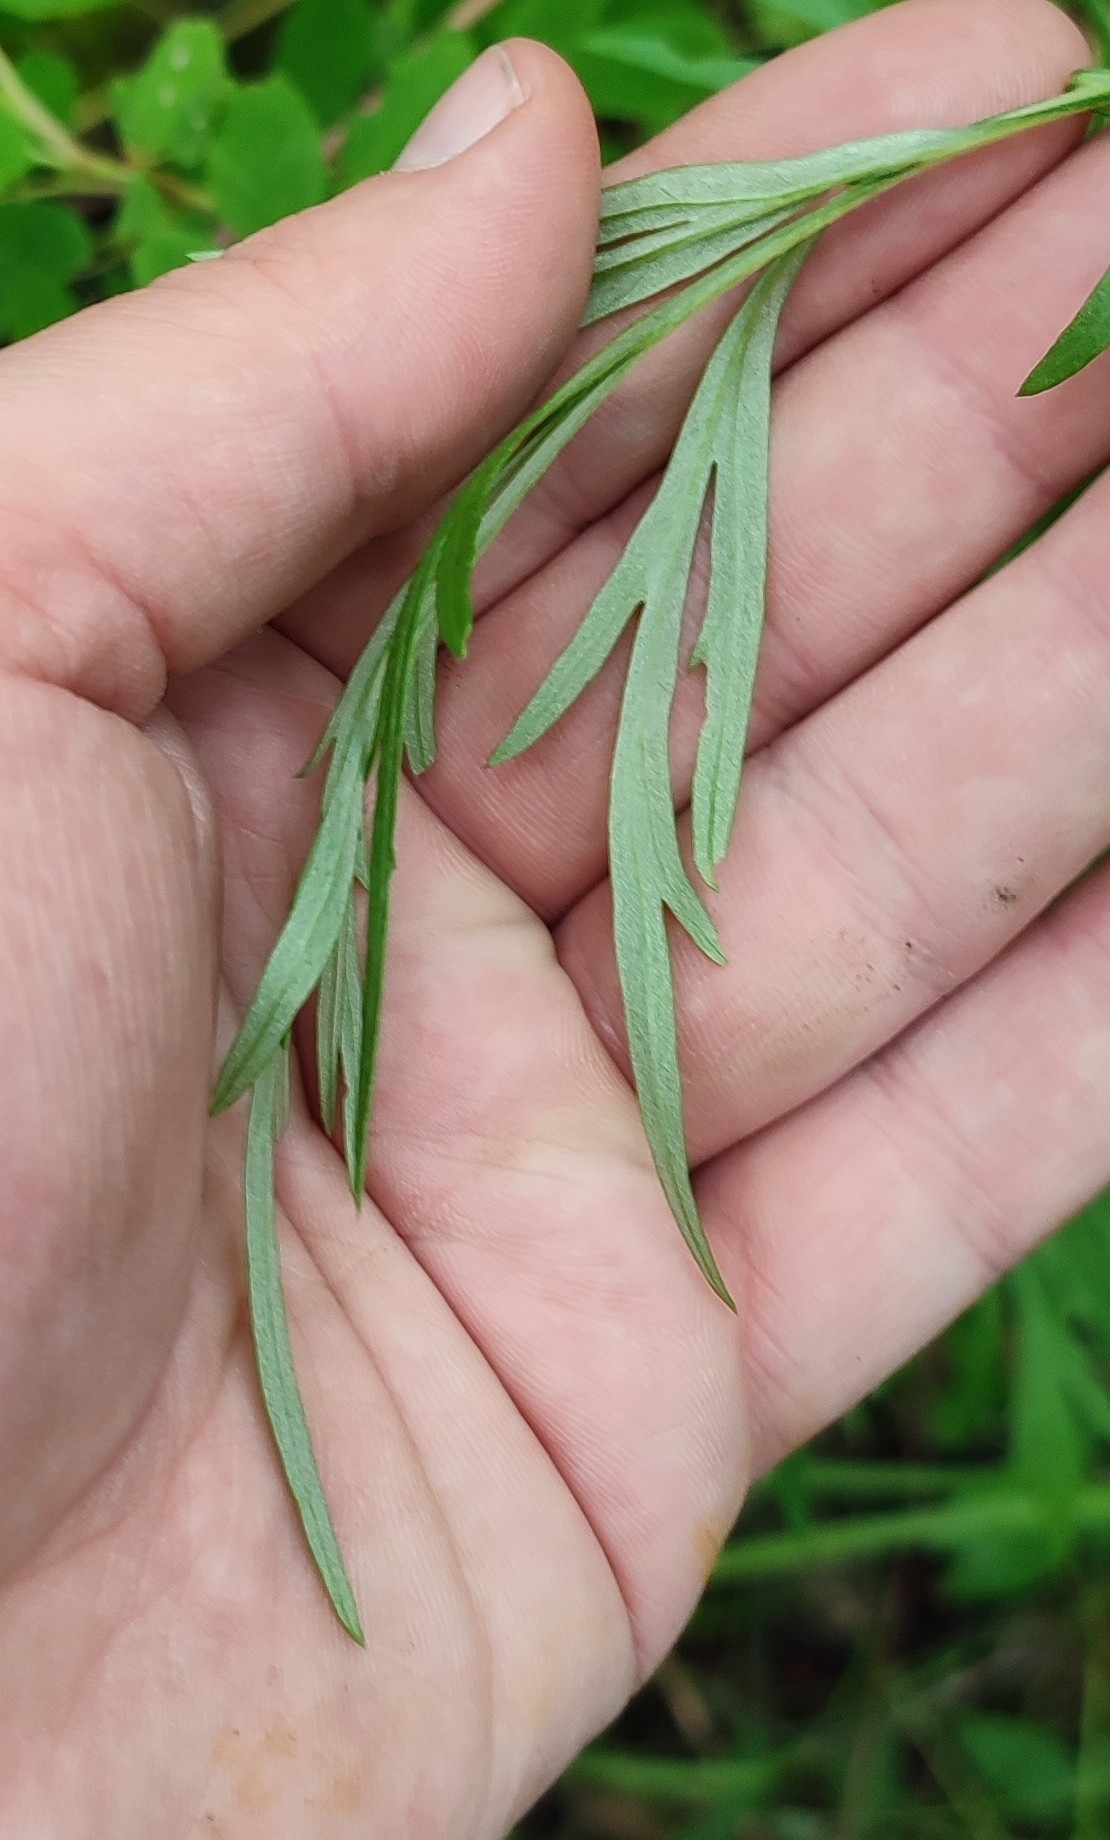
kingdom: Plantae
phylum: Tracheophyta
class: Magnoliopsida
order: Asterales
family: Asteraceae
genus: Artemisia
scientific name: Artemisia vulgaris
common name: Mugwort
